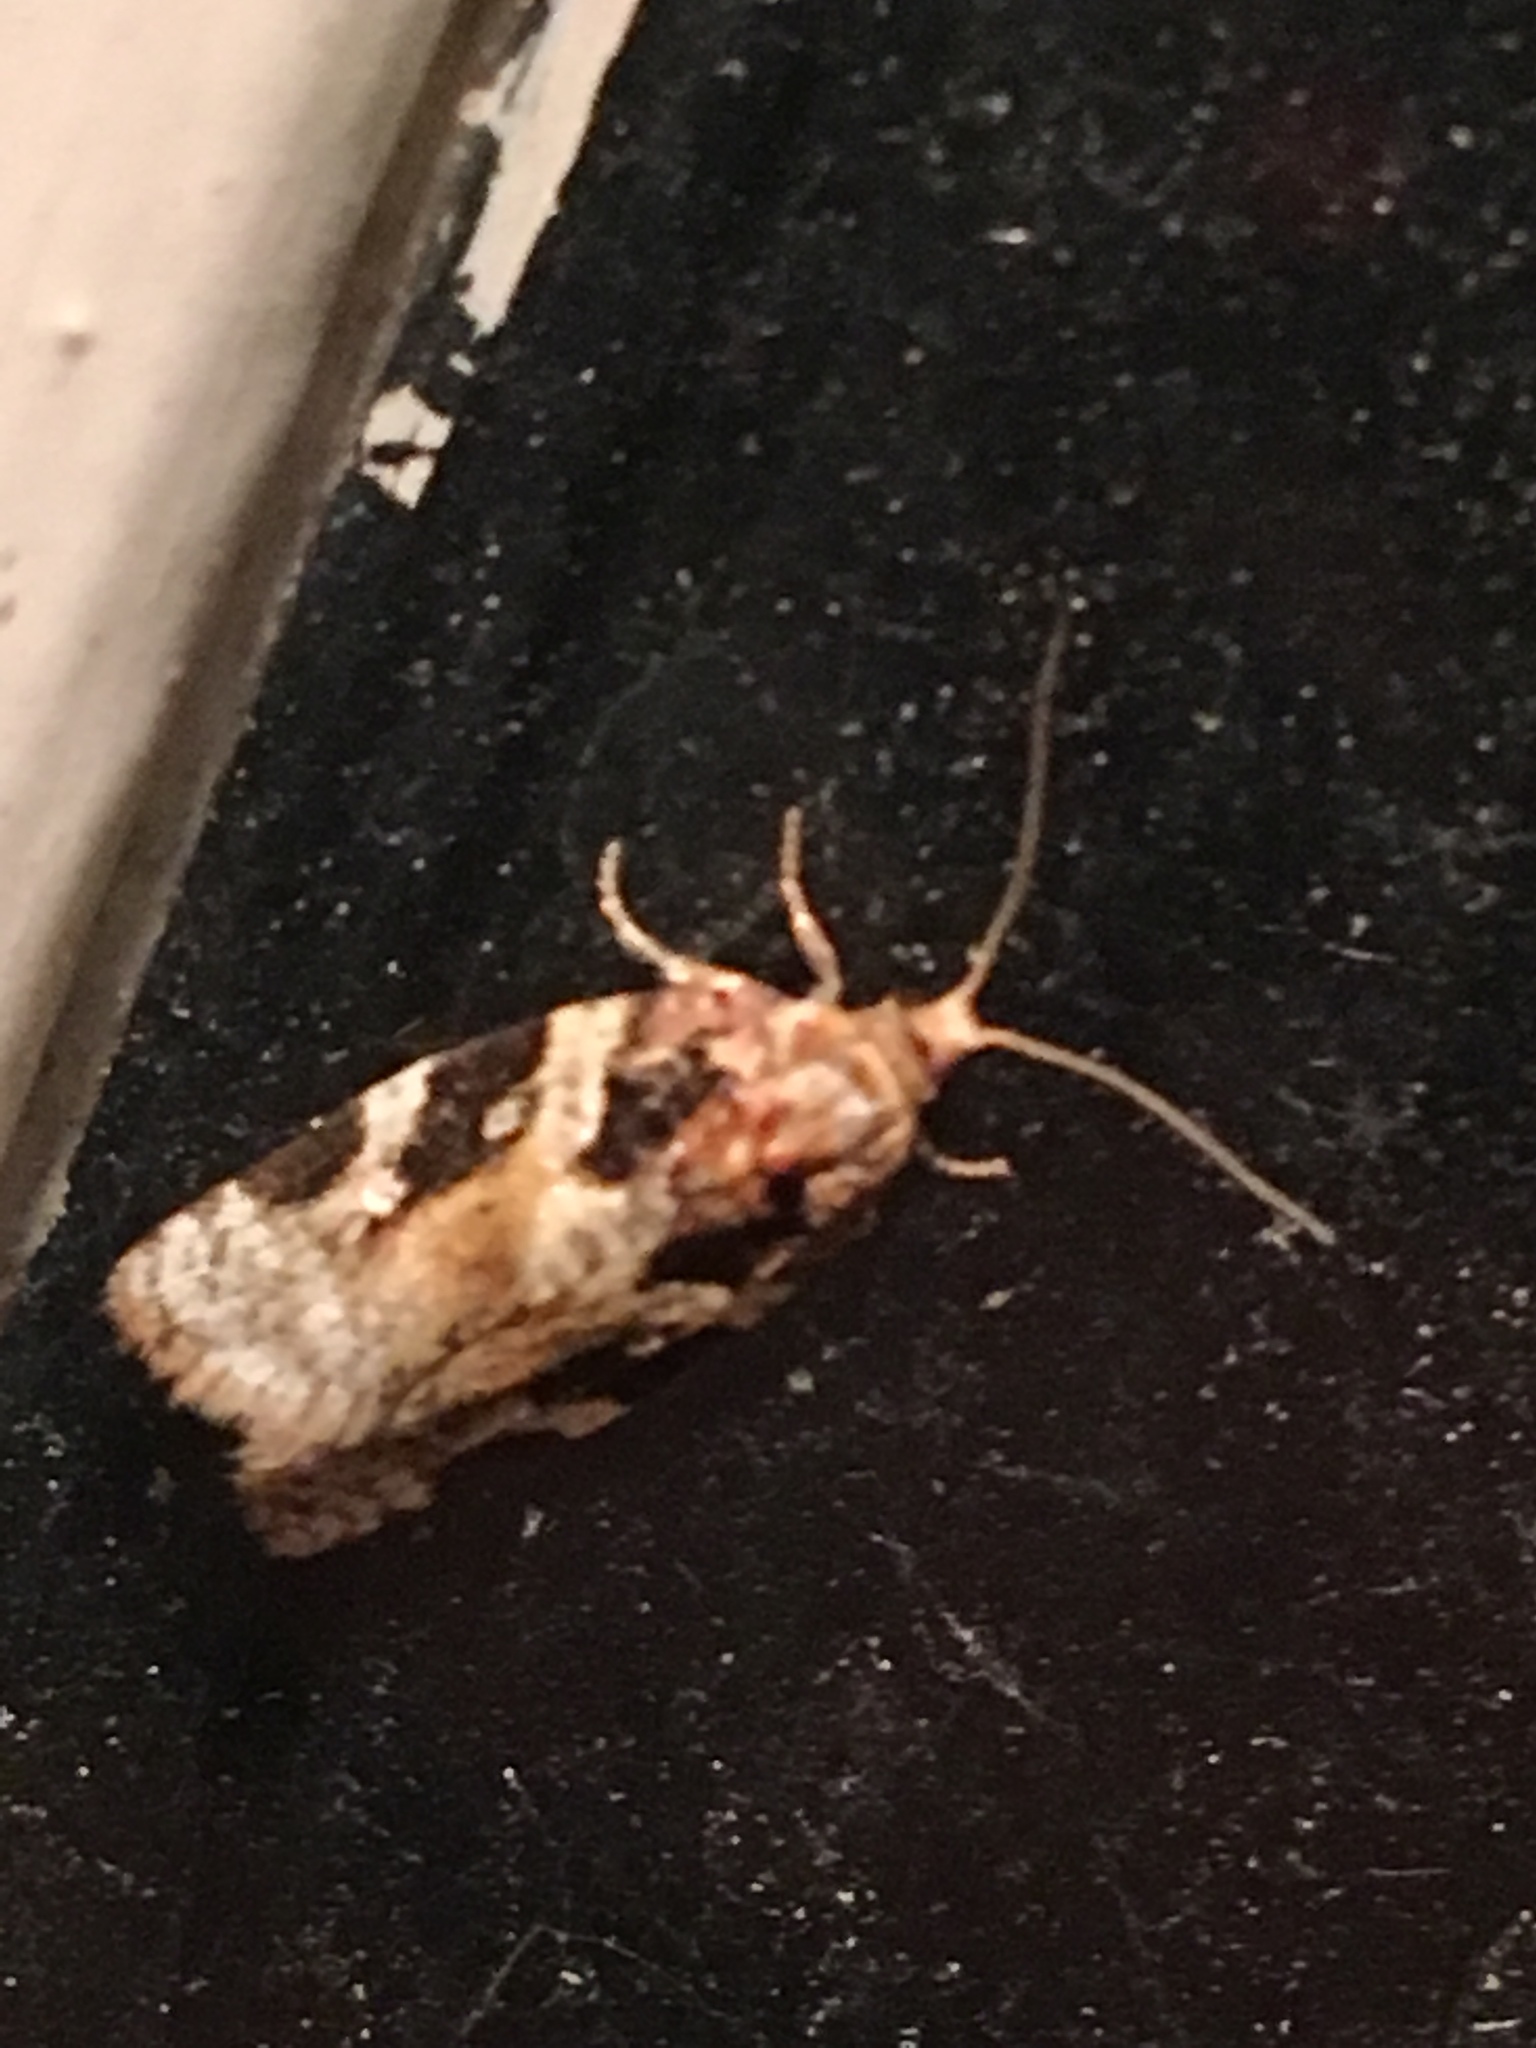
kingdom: Animalia
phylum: Arthropoda
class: Insecta
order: Lepidoptera
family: Tortricidae
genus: Argyrotaenia
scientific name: Argyrotaenia mariana
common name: Gray-banded leafroller moth
